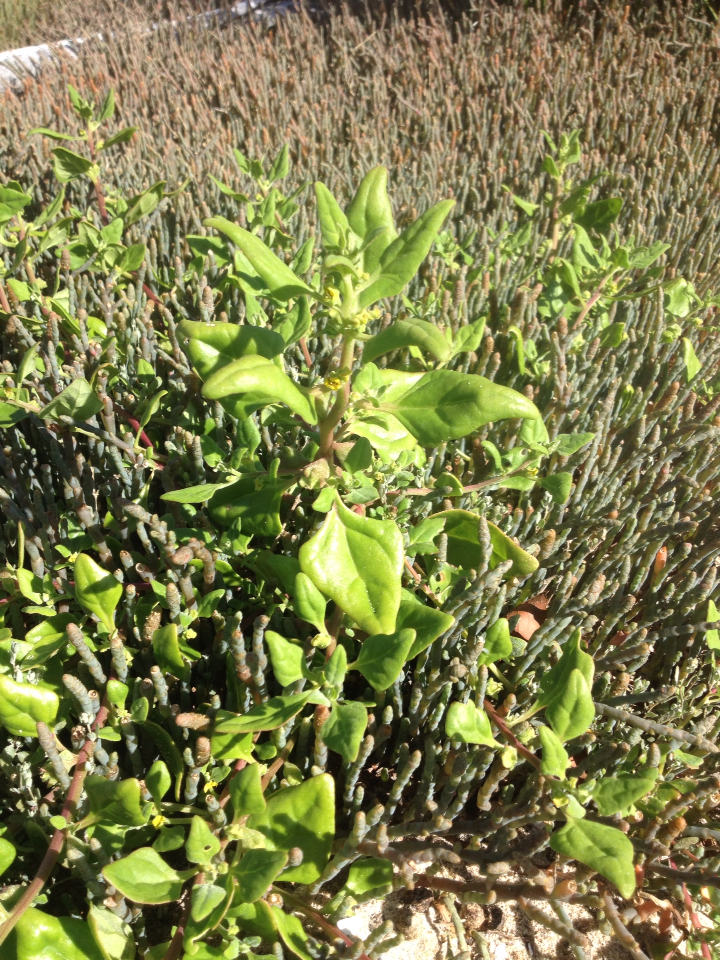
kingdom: Plantae
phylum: Tracheophyta
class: Magnoliopsida
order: Caryophyllales
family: Aizoaceae
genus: Tetragonia
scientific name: Tetragonia implexicoma
